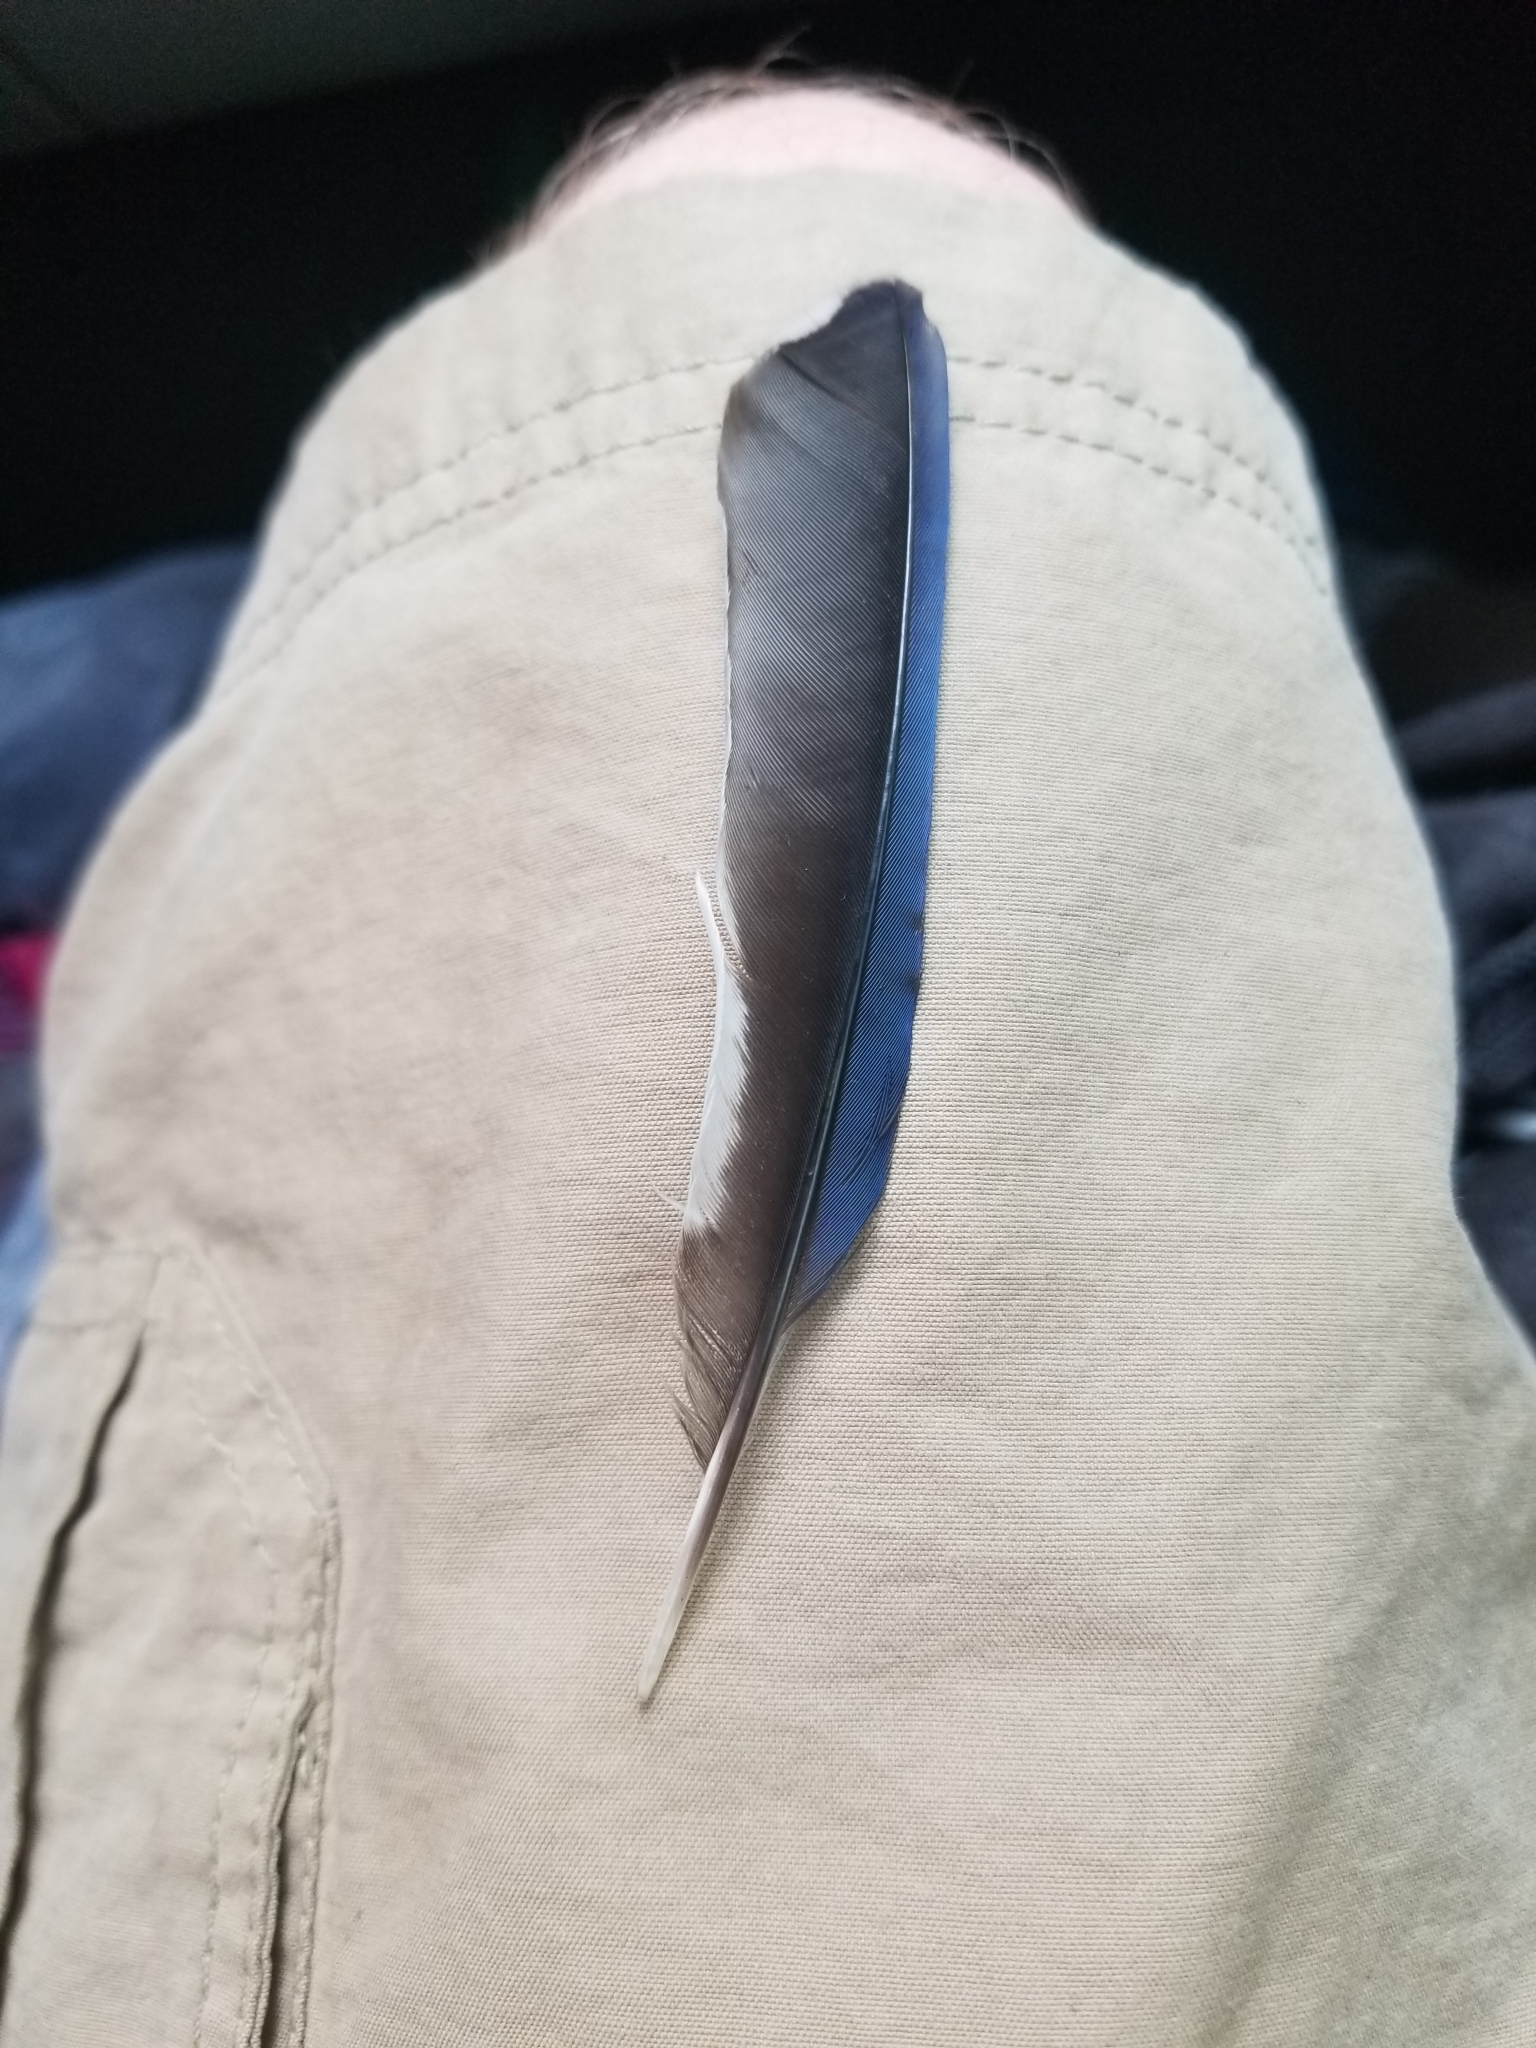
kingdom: Animalia
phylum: Chordata
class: Aves
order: Passeriformes
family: Corvidae
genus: Cyanocitta
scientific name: Cyanocitta cristata
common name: Blue jay
